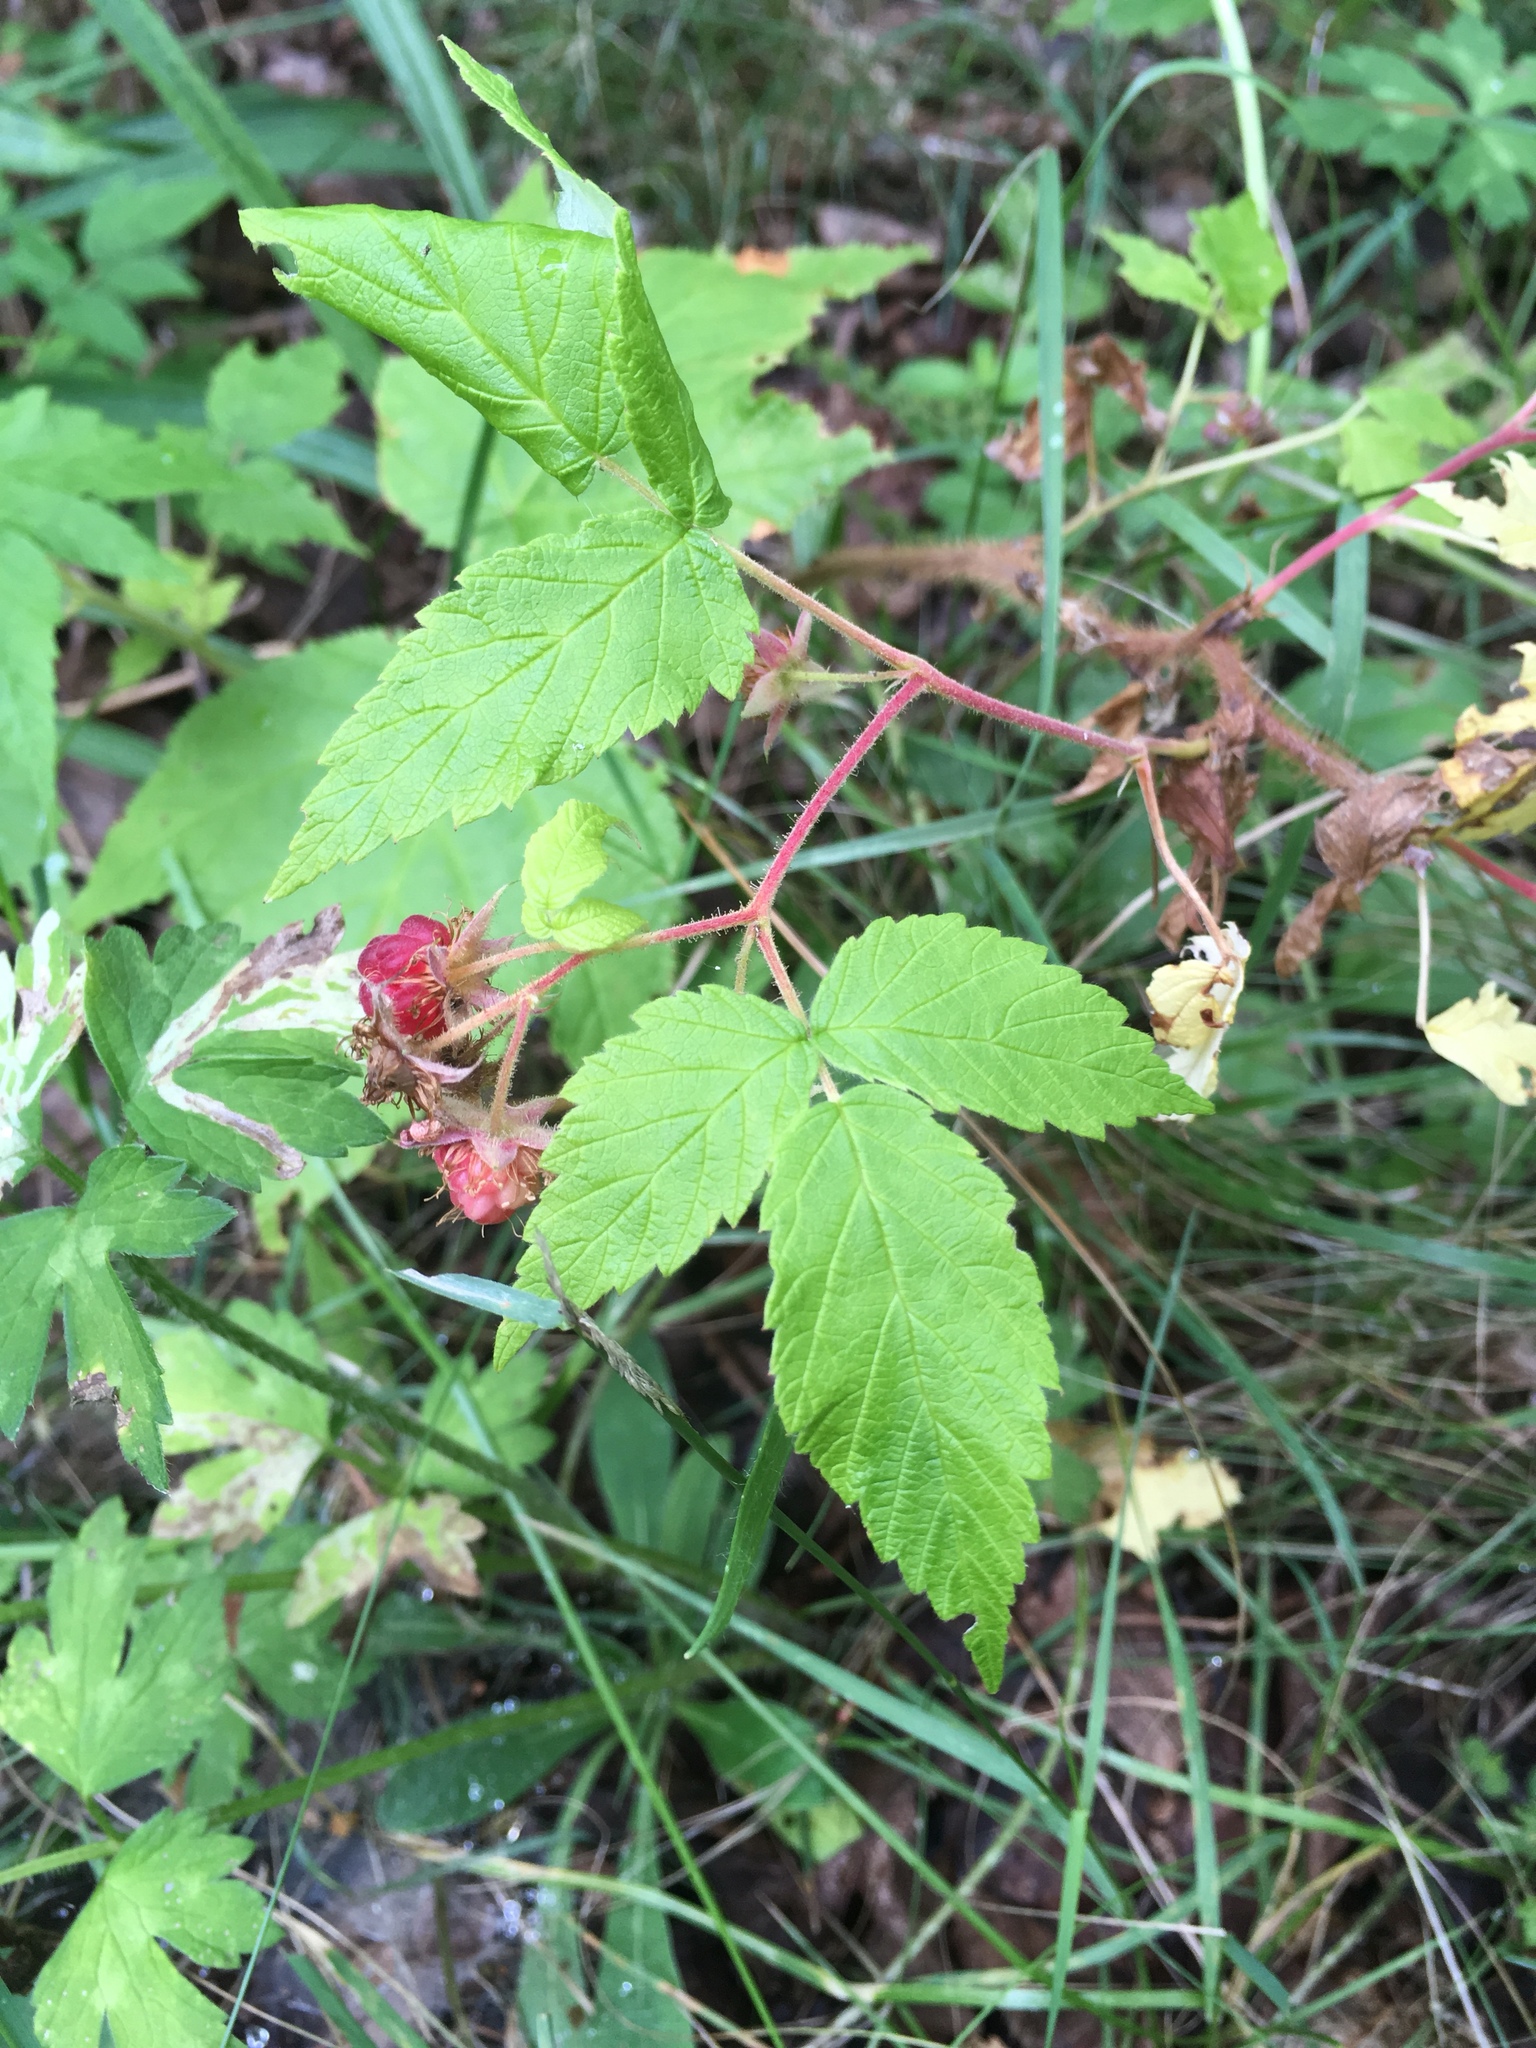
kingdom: Plantae
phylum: Tracheophyta
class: Magnoliopsida
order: Rosales
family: Rosaceae
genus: Rubus
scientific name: Rubus idaeus
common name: Raspberry
